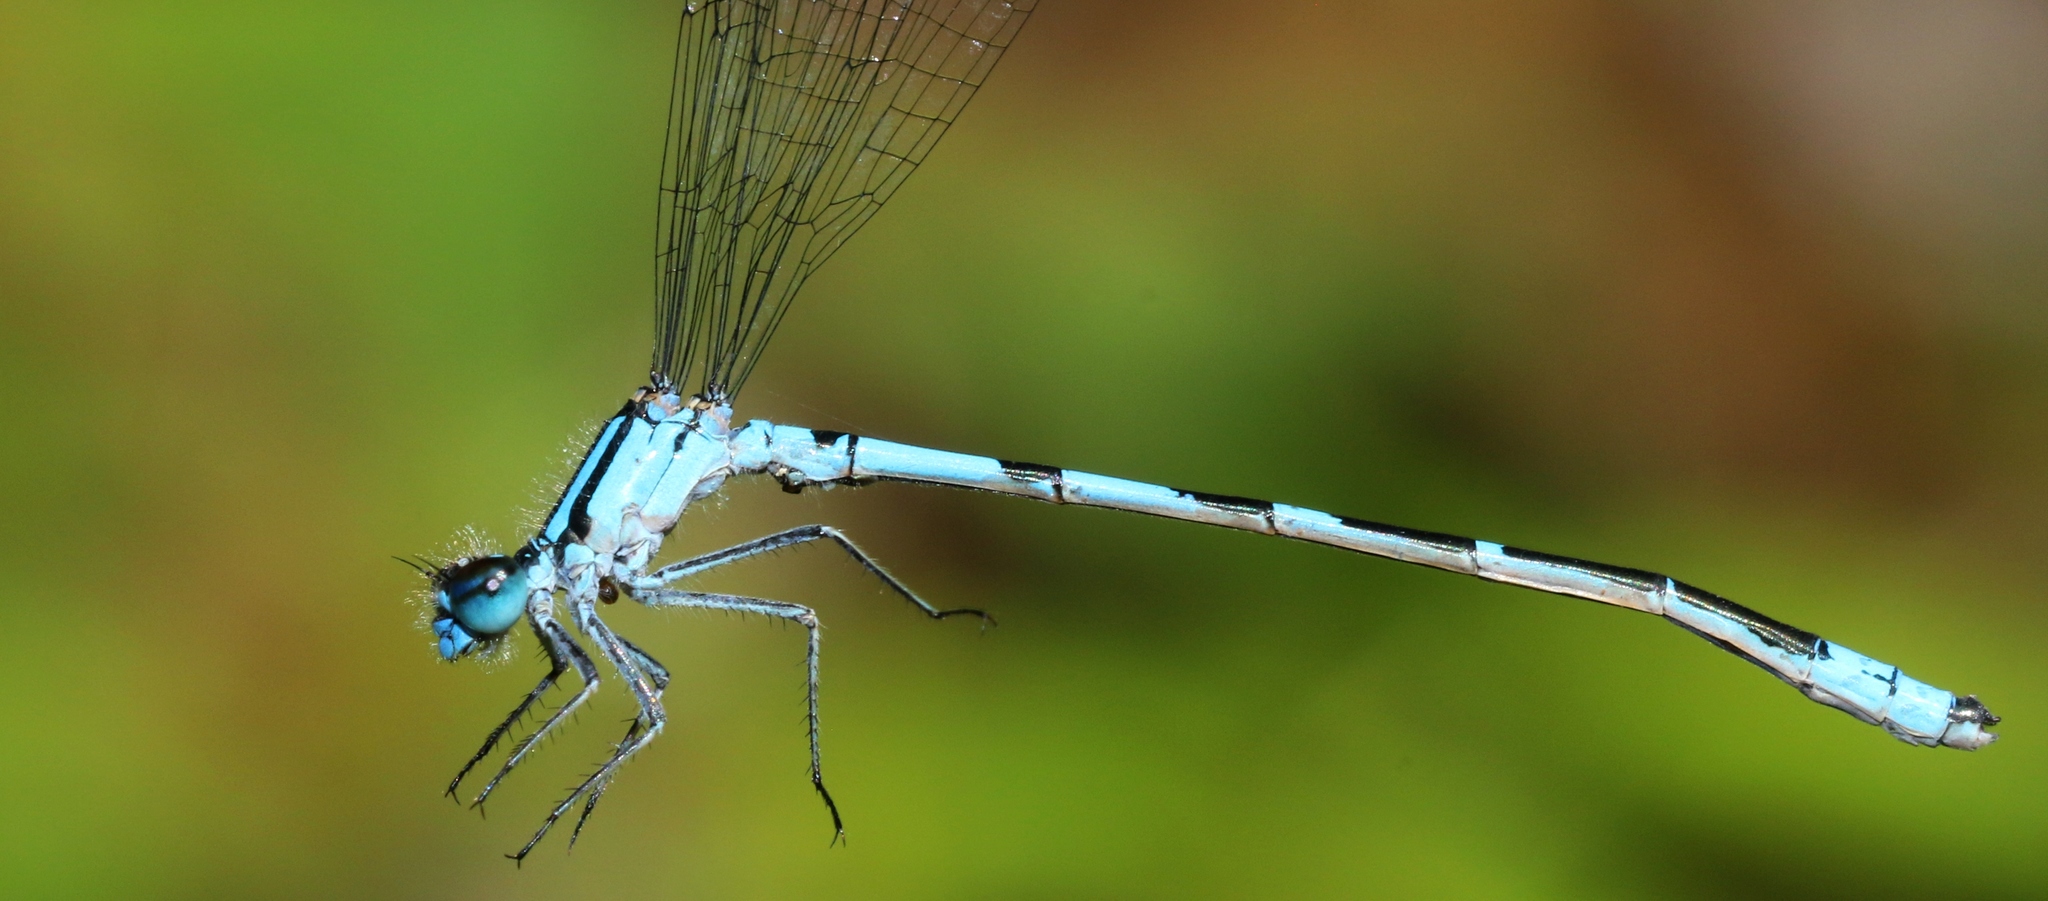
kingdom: Animalia
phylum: Arthropoda
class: Insecta
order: Odonata
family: Coenagrionidae
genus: Enallagma
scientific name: Enallagma hageni
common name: Hagen's bluet
